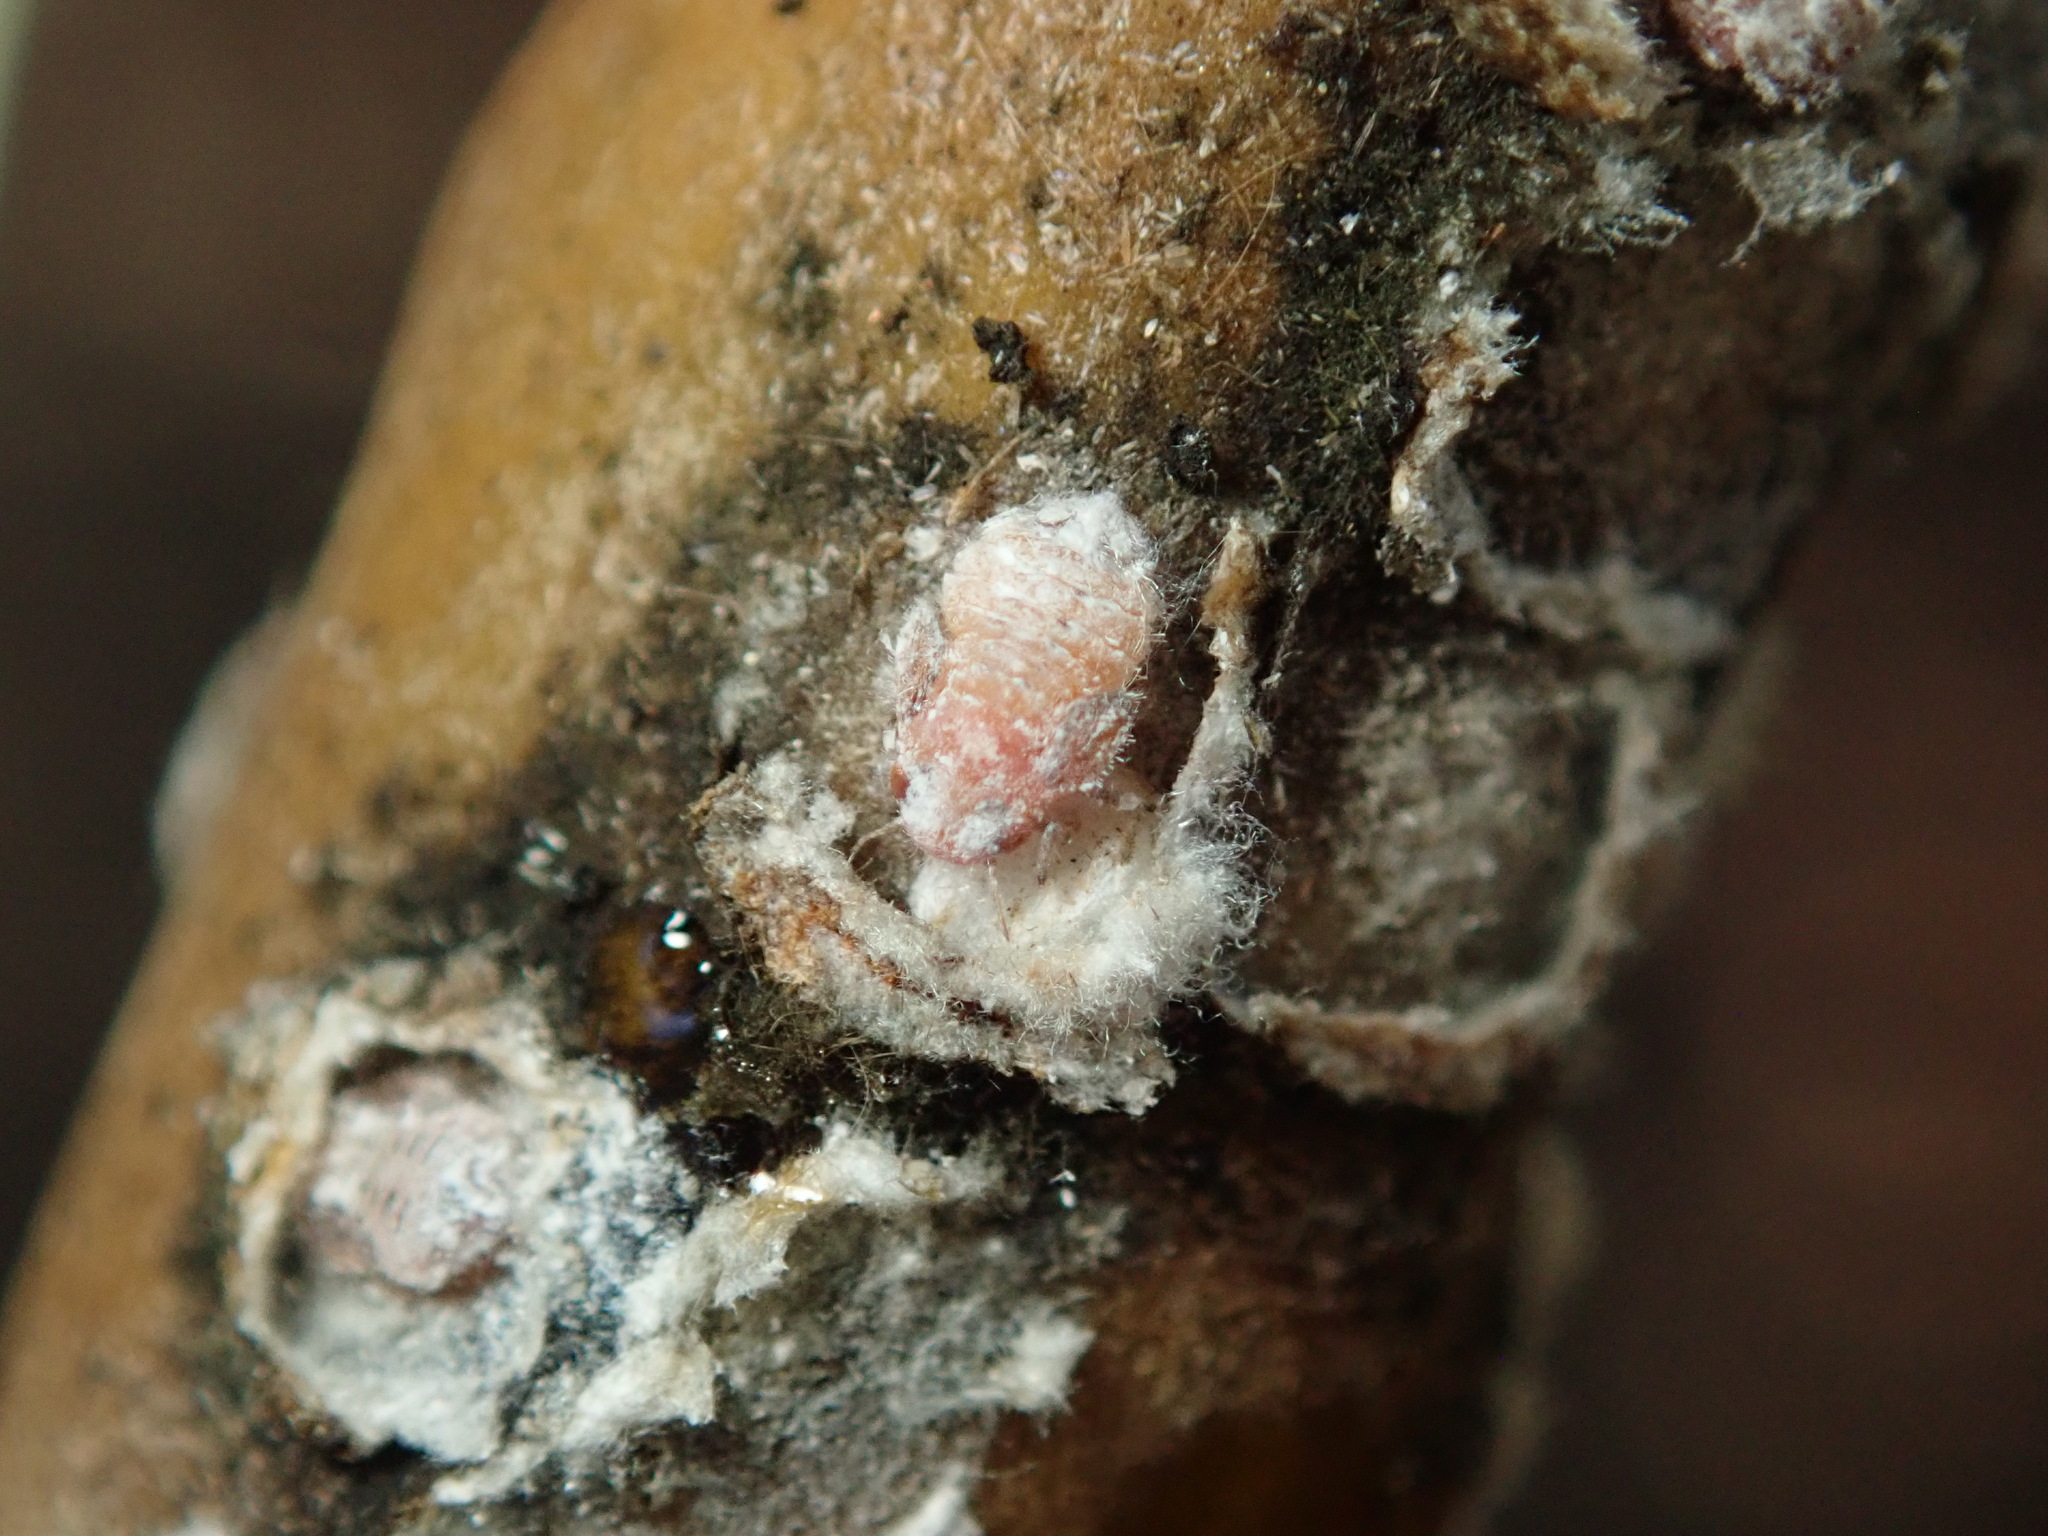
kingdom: Animalia
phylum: Arthropoda
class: Insecta
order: Hemiptera
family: Liviidae
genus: Neophyllura
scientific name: Neophyllura arbuti
